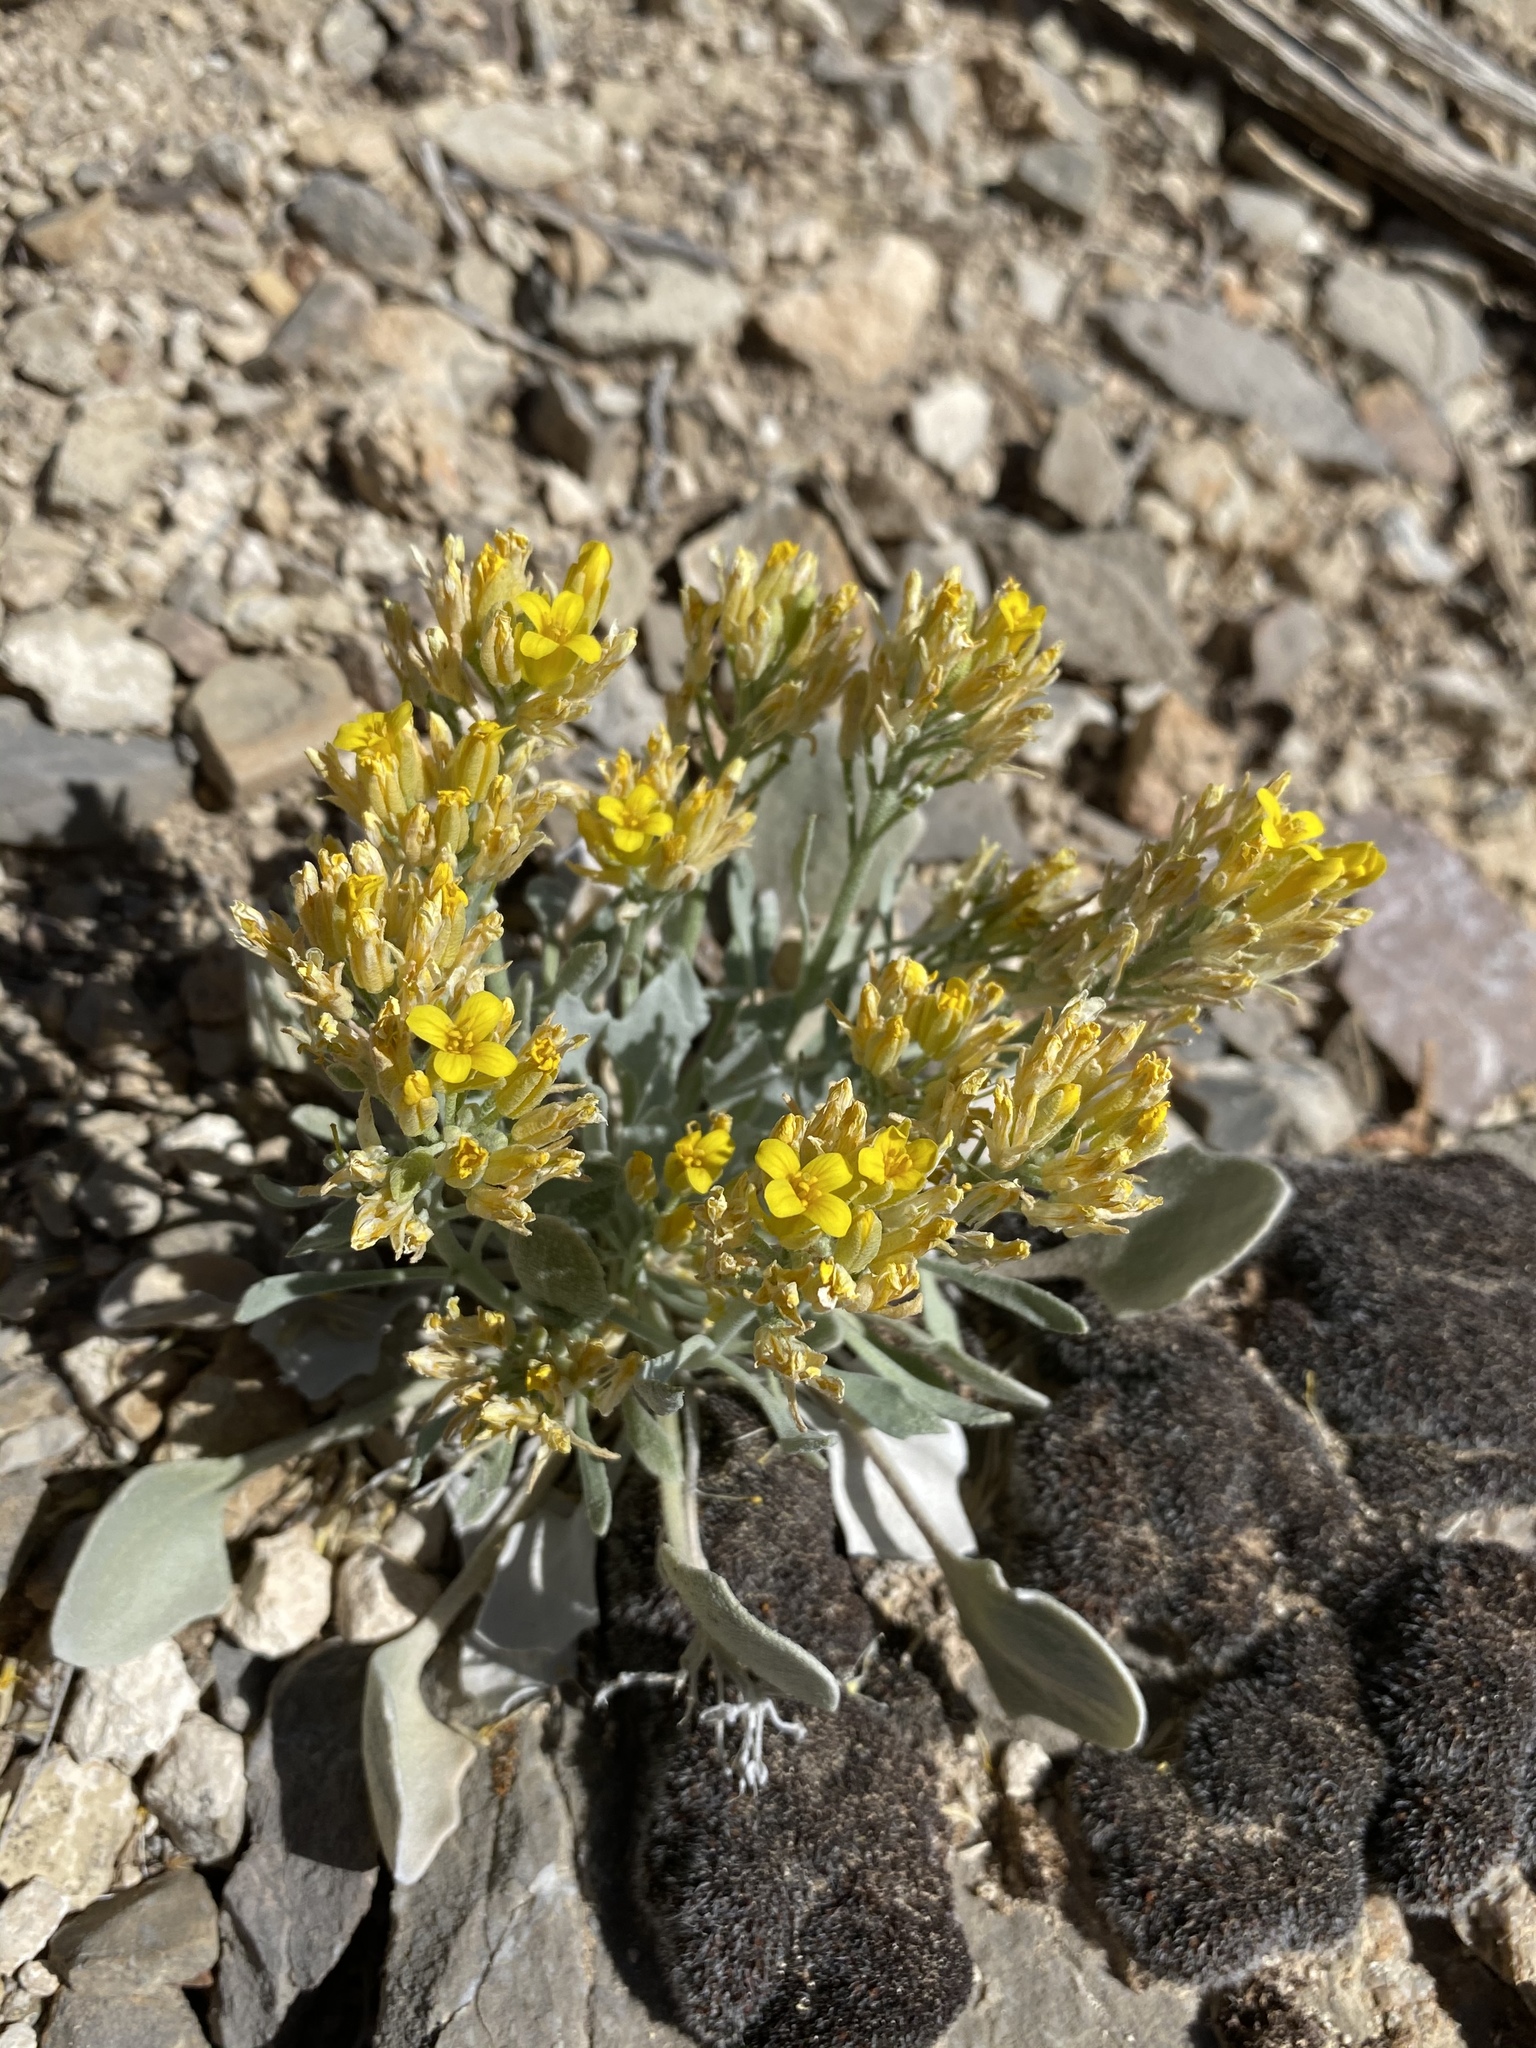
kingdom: Plantae
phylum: Tracheophyta
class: Magnoliopsida
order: Brassicales
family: Brassicaceae
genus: Physaria
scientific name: Physaria chambersii
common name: Chamber's twinpod
